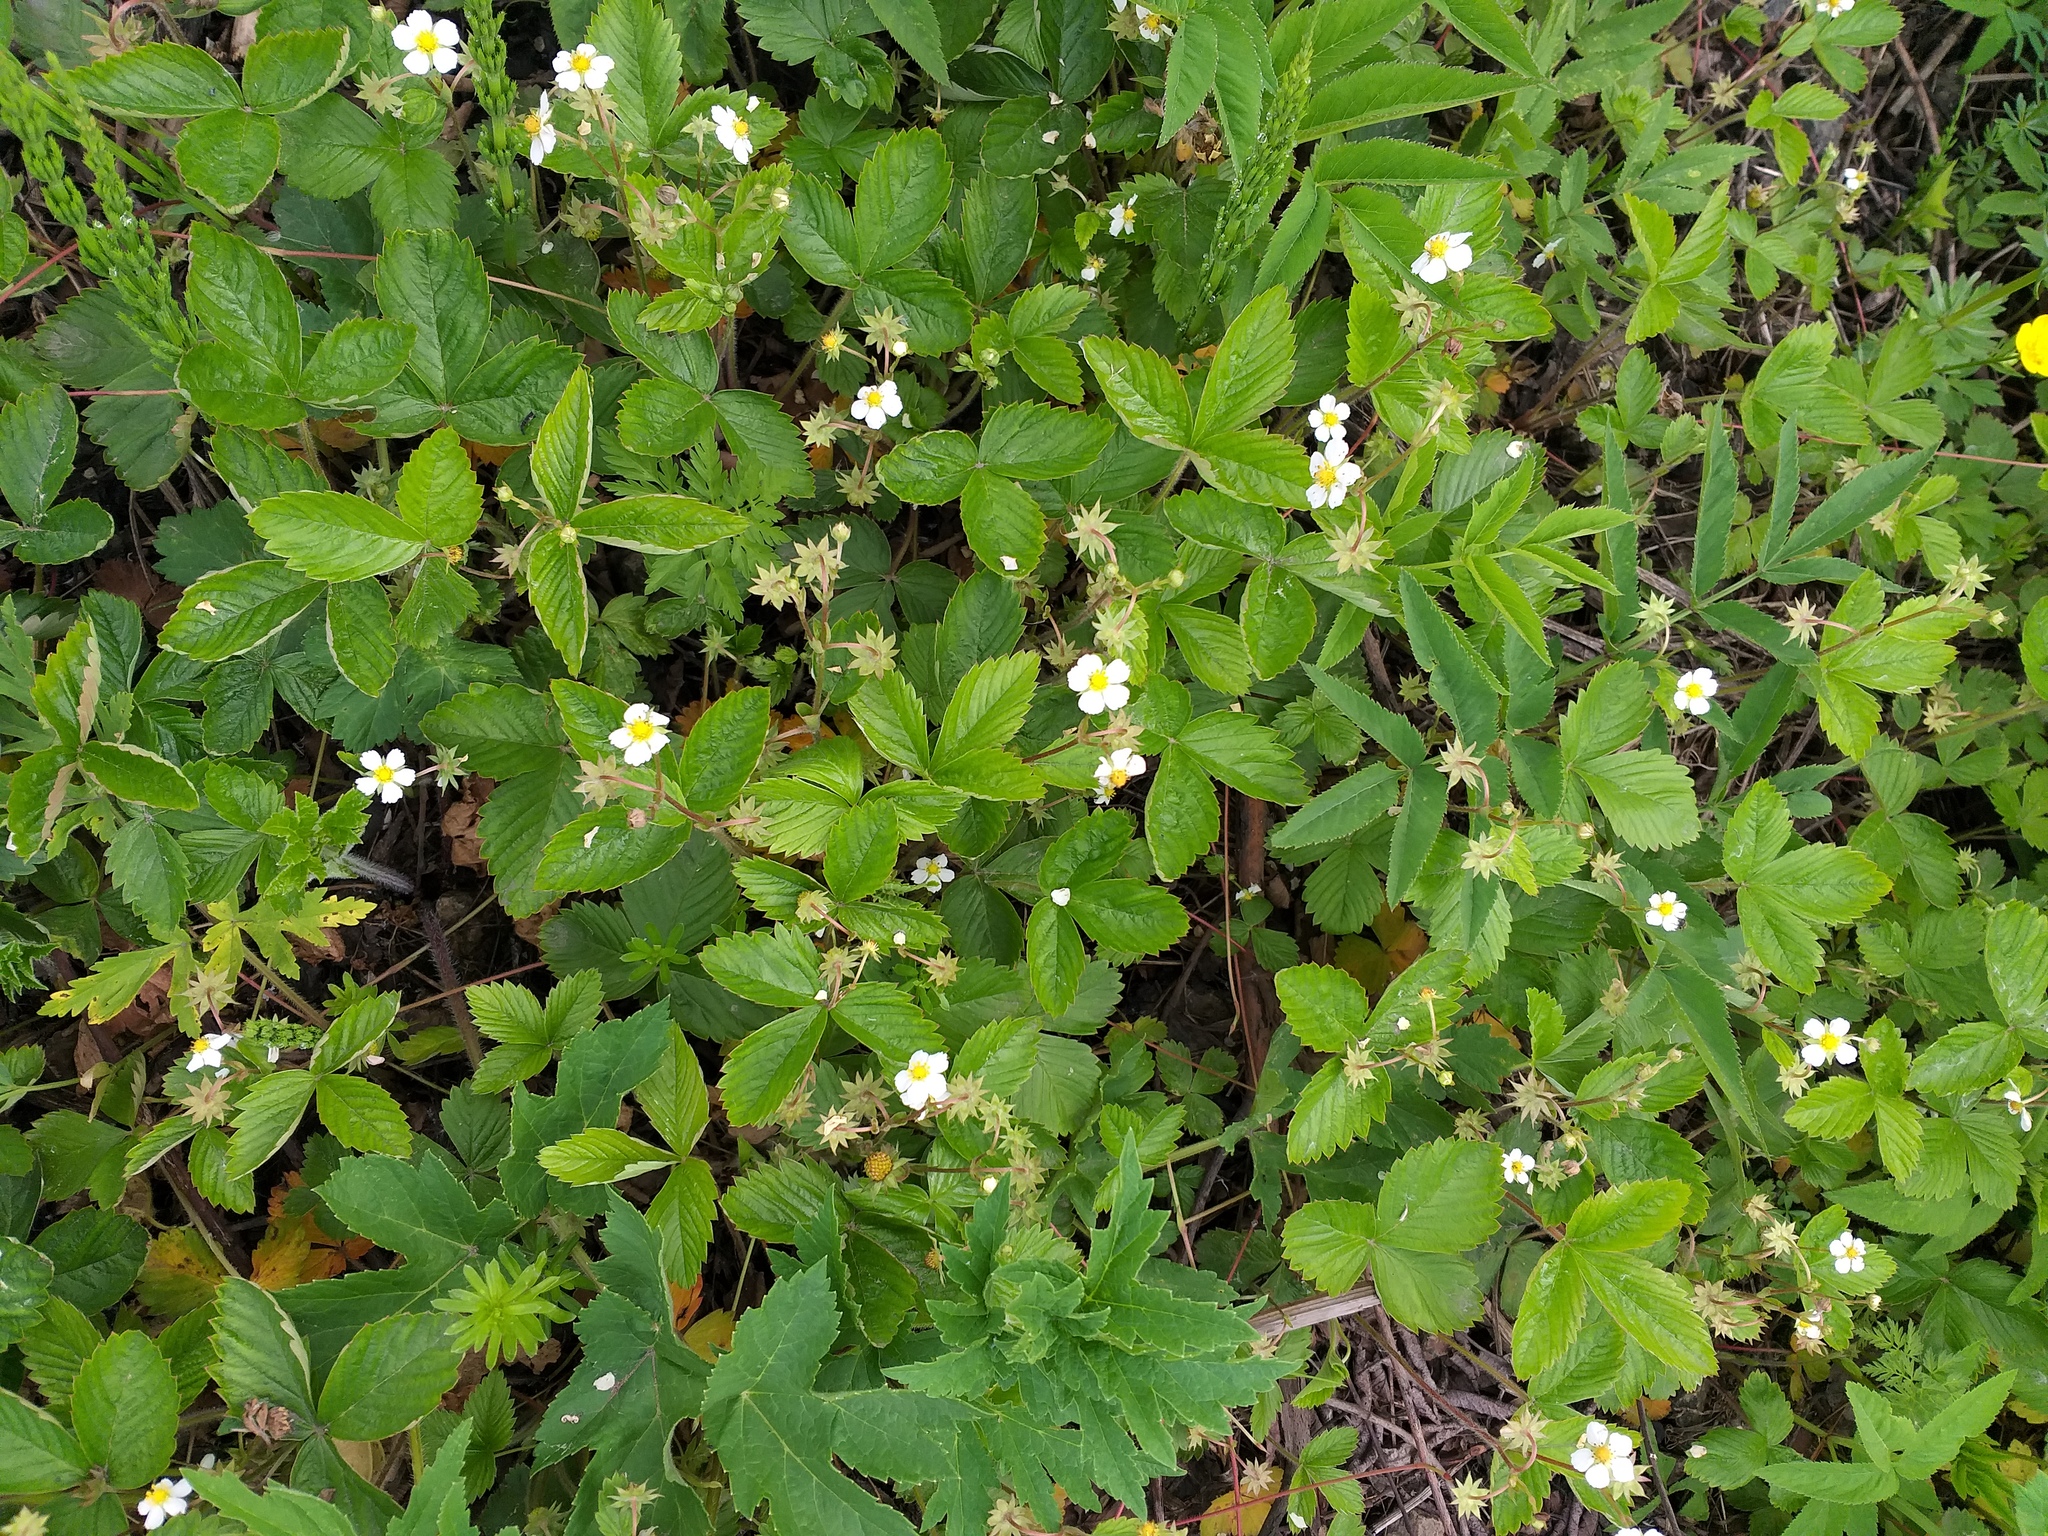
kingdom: Plantae
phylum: Tracheophyta
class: Magnoliopsida
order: Rosales
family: Rosaceae
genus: Fragaria
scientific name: Fragaria vesca
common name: Wild strawberry
